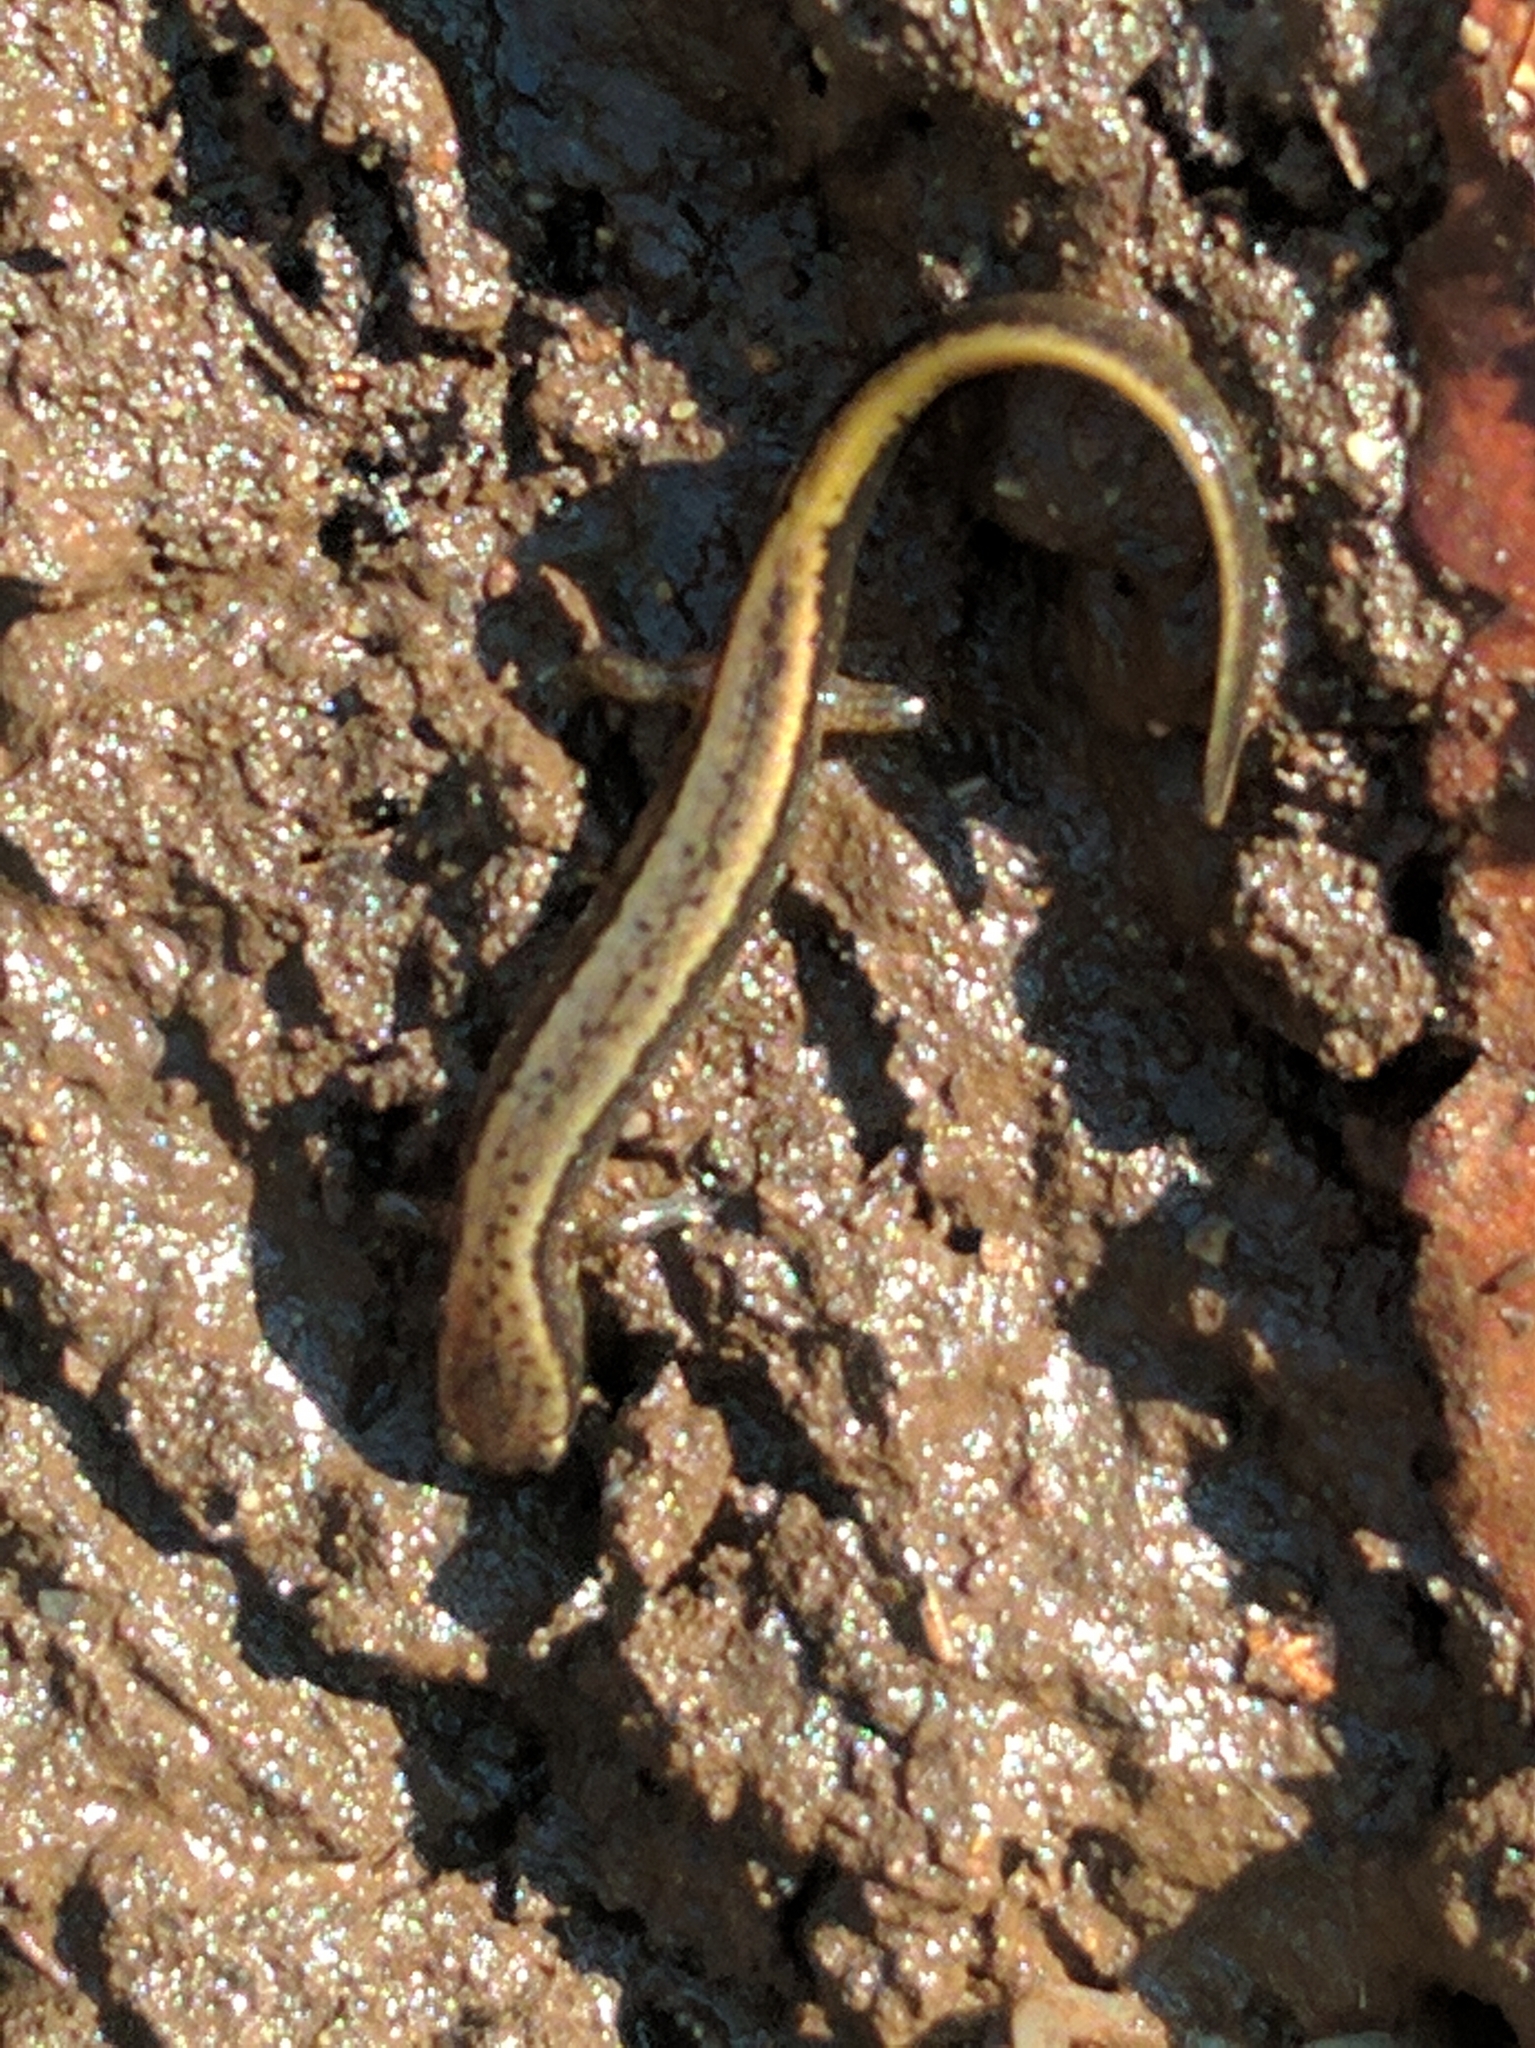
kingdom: Animalia
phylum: Chordata
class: Amphibia
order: Caudata
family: Plethodontidae
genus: Eurycea
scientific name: Eurycea bislineata
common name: Northern two-lined salamander
